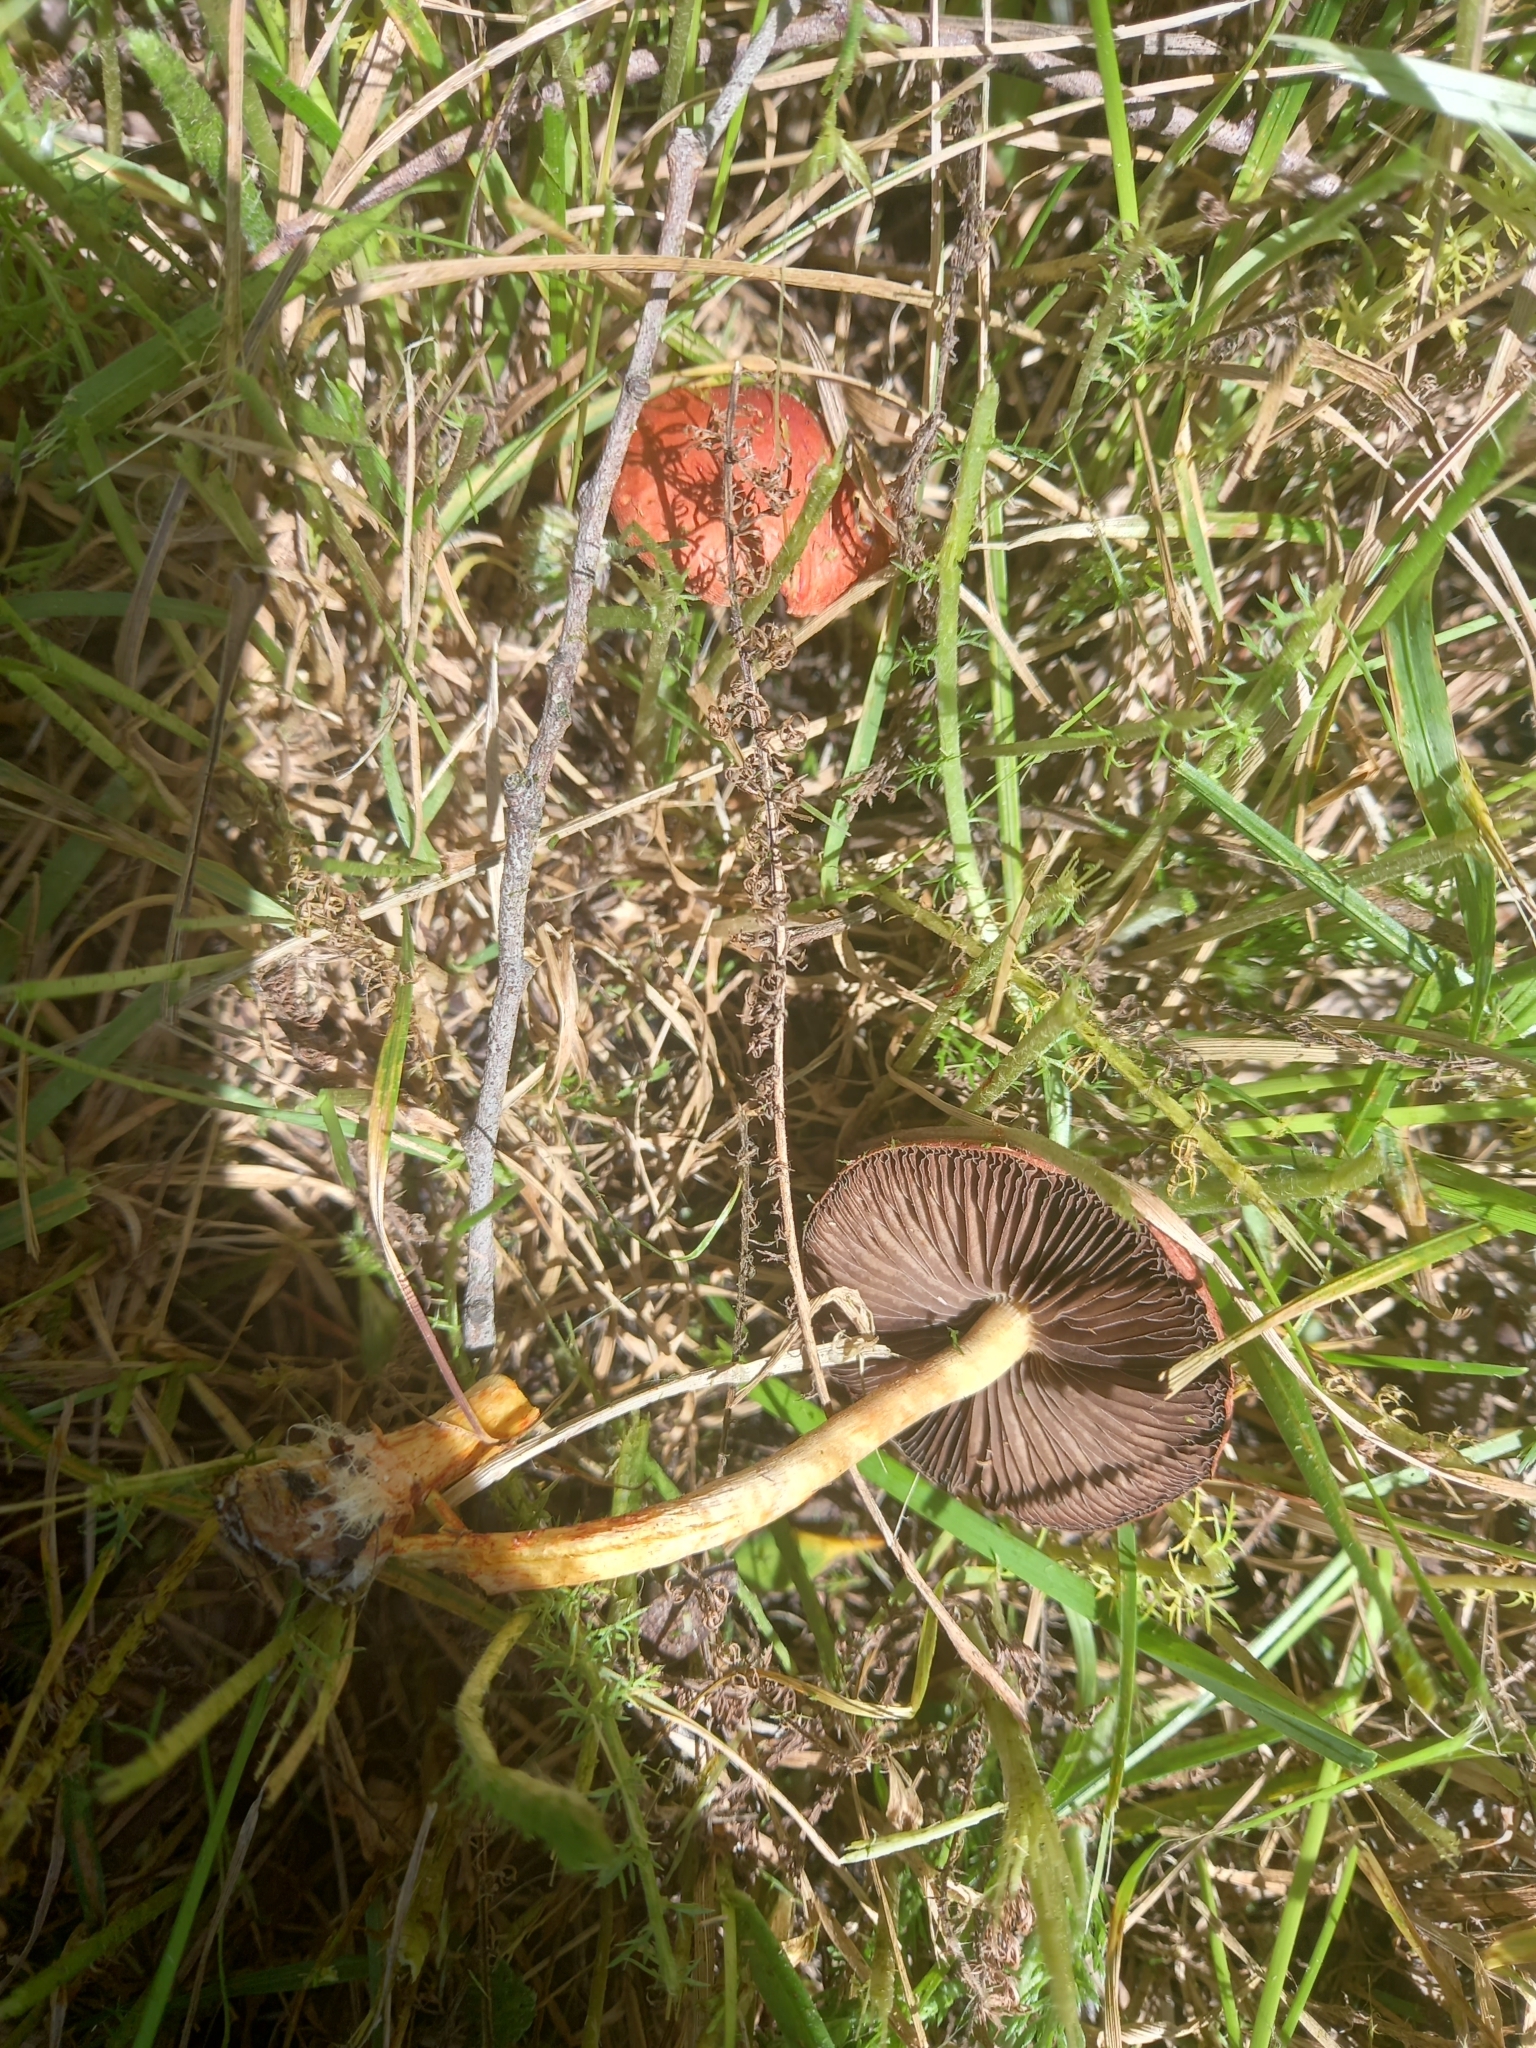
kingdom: Fungi
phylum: Basidiomycota
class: Agaricomycetes
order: Agaricales
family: Strophariaceae
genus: Leratiomyces
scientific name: Leratiomyces ceres
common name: Redlead roundhead
